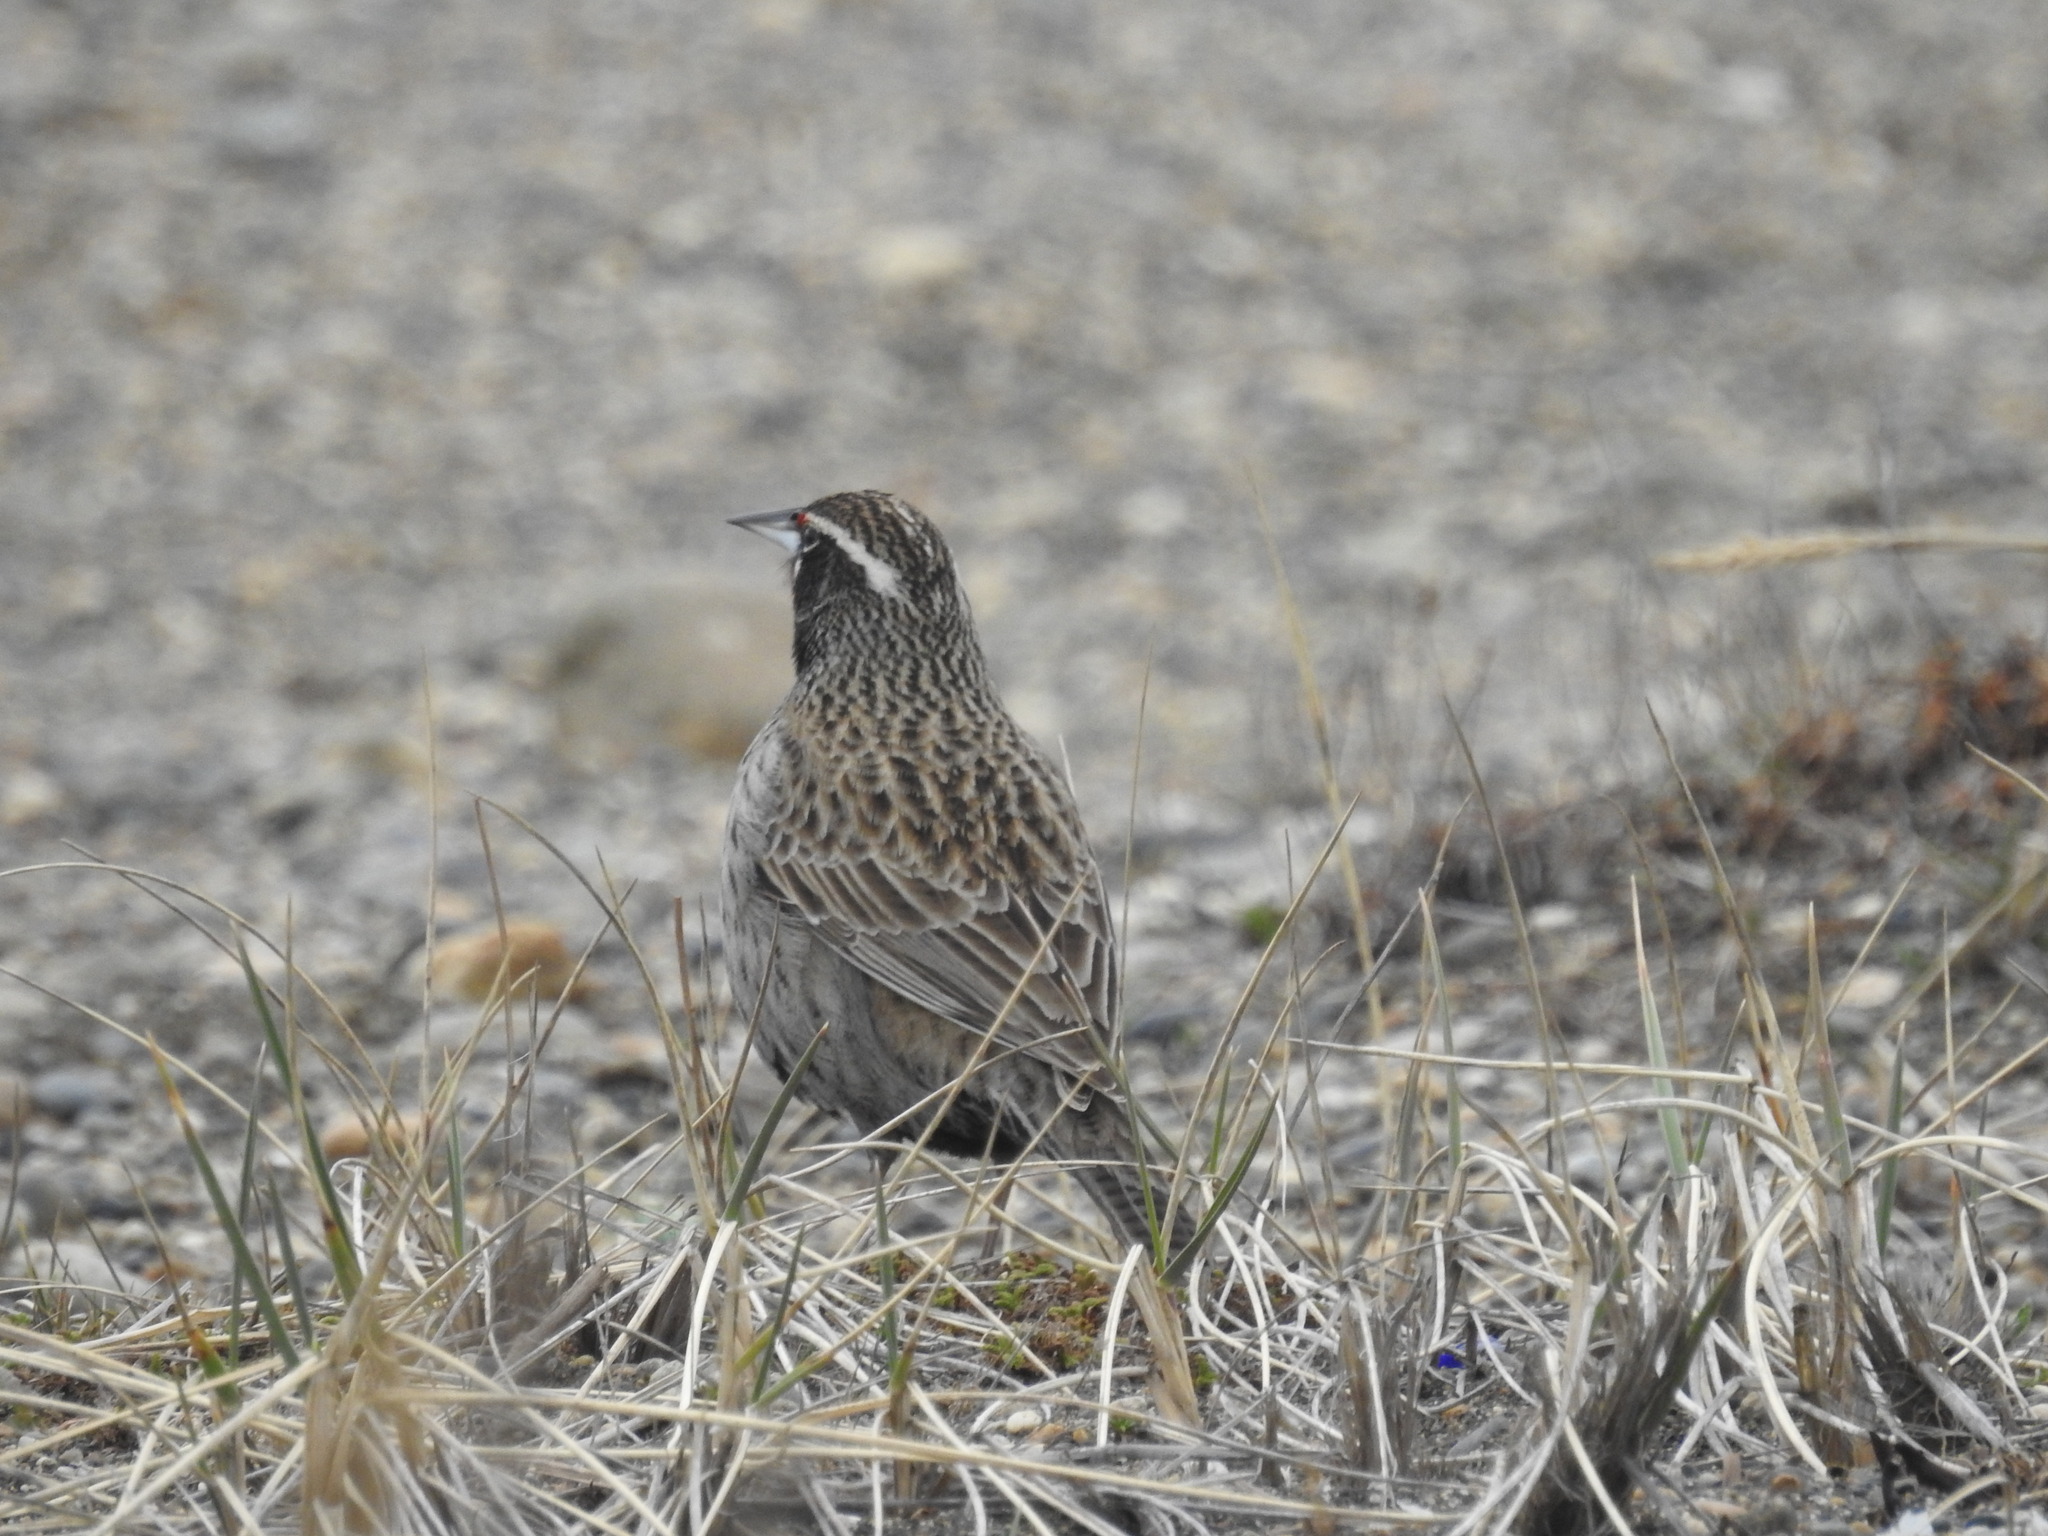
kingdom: Animalia
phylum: Chordata
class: Aves
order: Passeriformes
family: Icteridae
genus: Sturnella
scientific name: Sturnella loyca
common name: Long-tailed meadowlark
